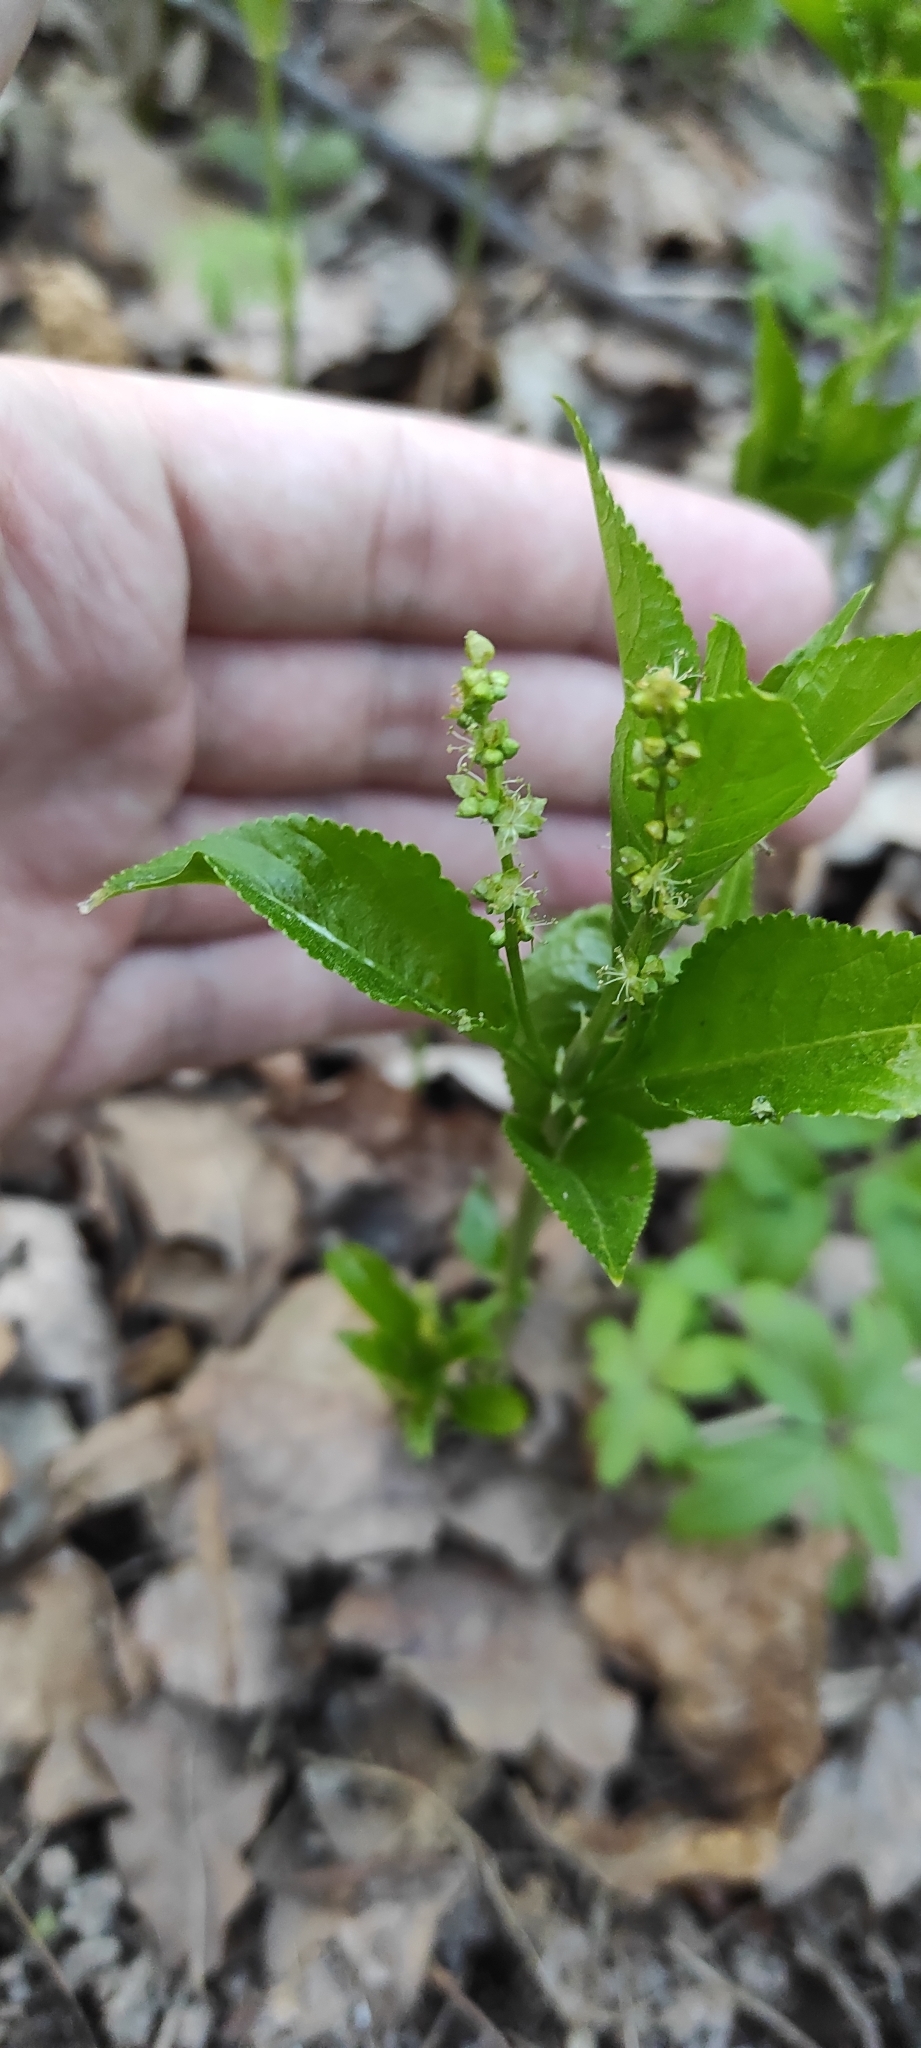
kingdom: Plantae
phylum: Tracheophyta
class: Magnoliopsida
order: Malpighiales
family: Euphorbiaceae
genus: Mercurialis
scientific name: Mercurialis perennis
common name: Dog mercury
